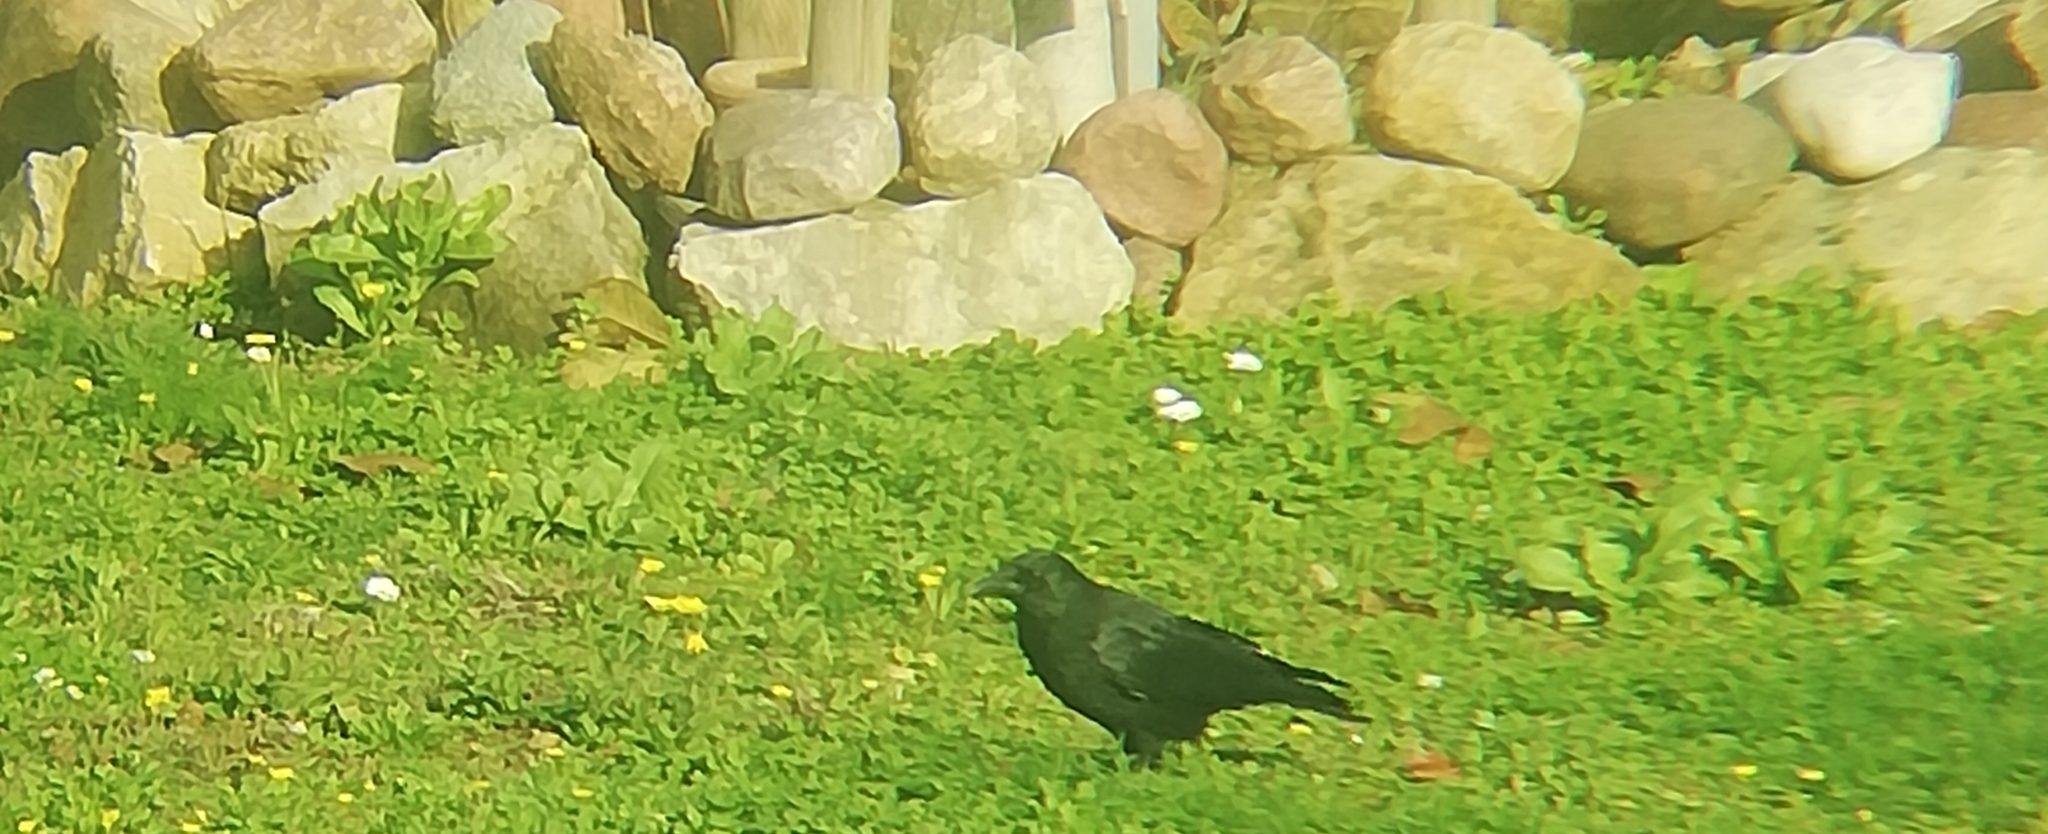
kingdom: Animalia
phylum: Chordata
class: Aves
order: Passeriformes
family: Corvidae
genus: Corvus
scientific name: Corvus corone
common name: Carrion crow
